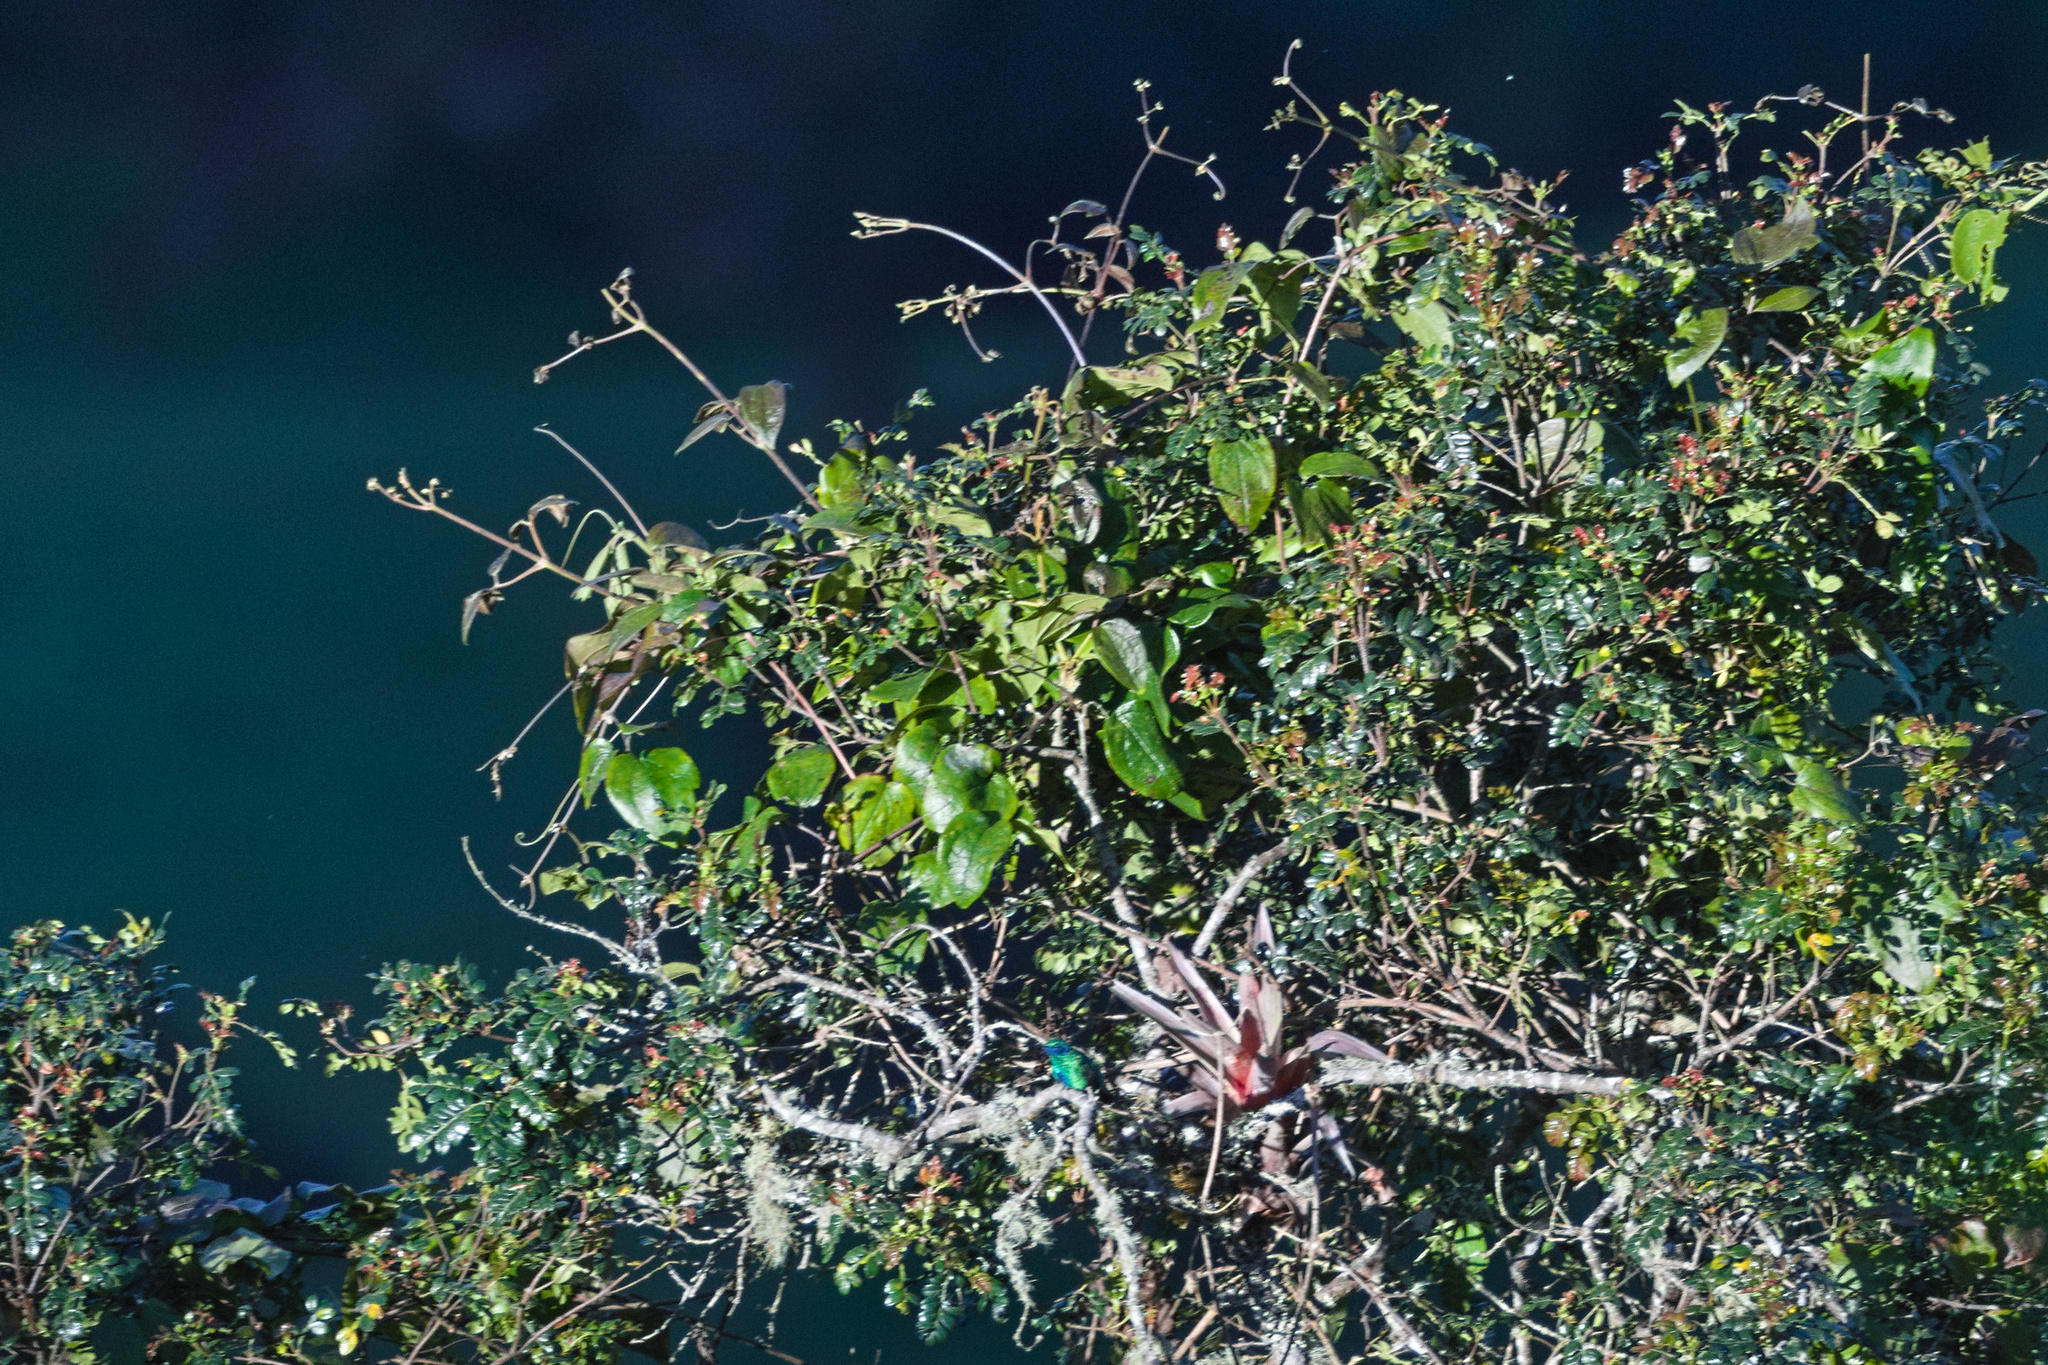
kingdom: Animalia
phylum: Chordata
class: Aves
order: Apodiformes
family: Trochilidae
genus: Colibri
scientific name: Colibri coruscans
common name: Sparkling violetear
